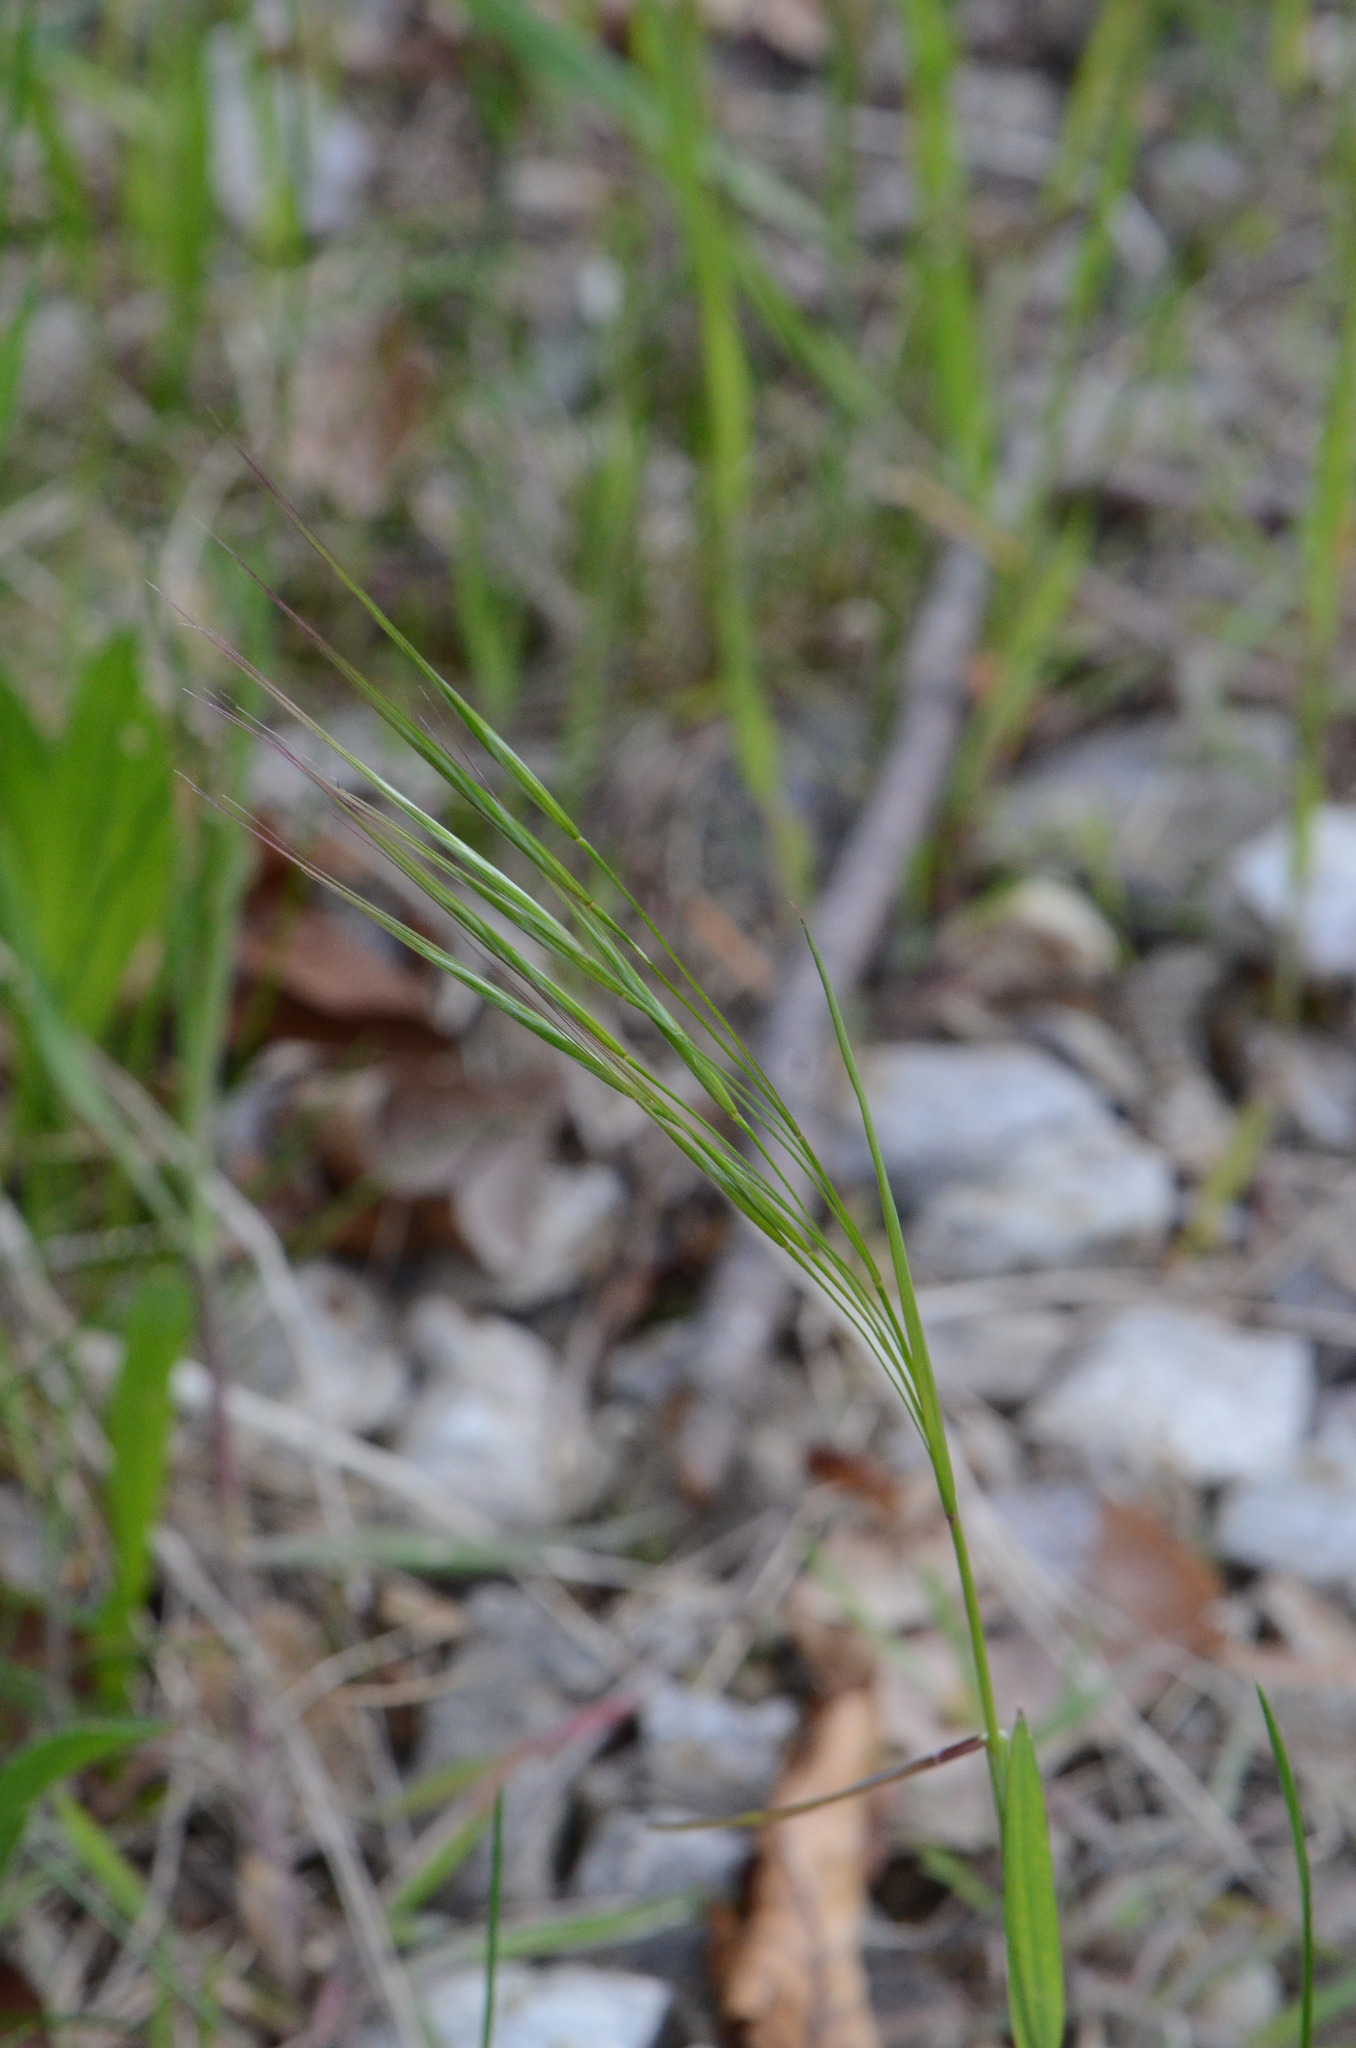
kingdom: Plantae
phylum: Tracheophyta
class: Liliopsida
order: Poales
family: Poaceae
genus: Bromus
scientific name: Bromus sterilis
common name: Poverty brome
